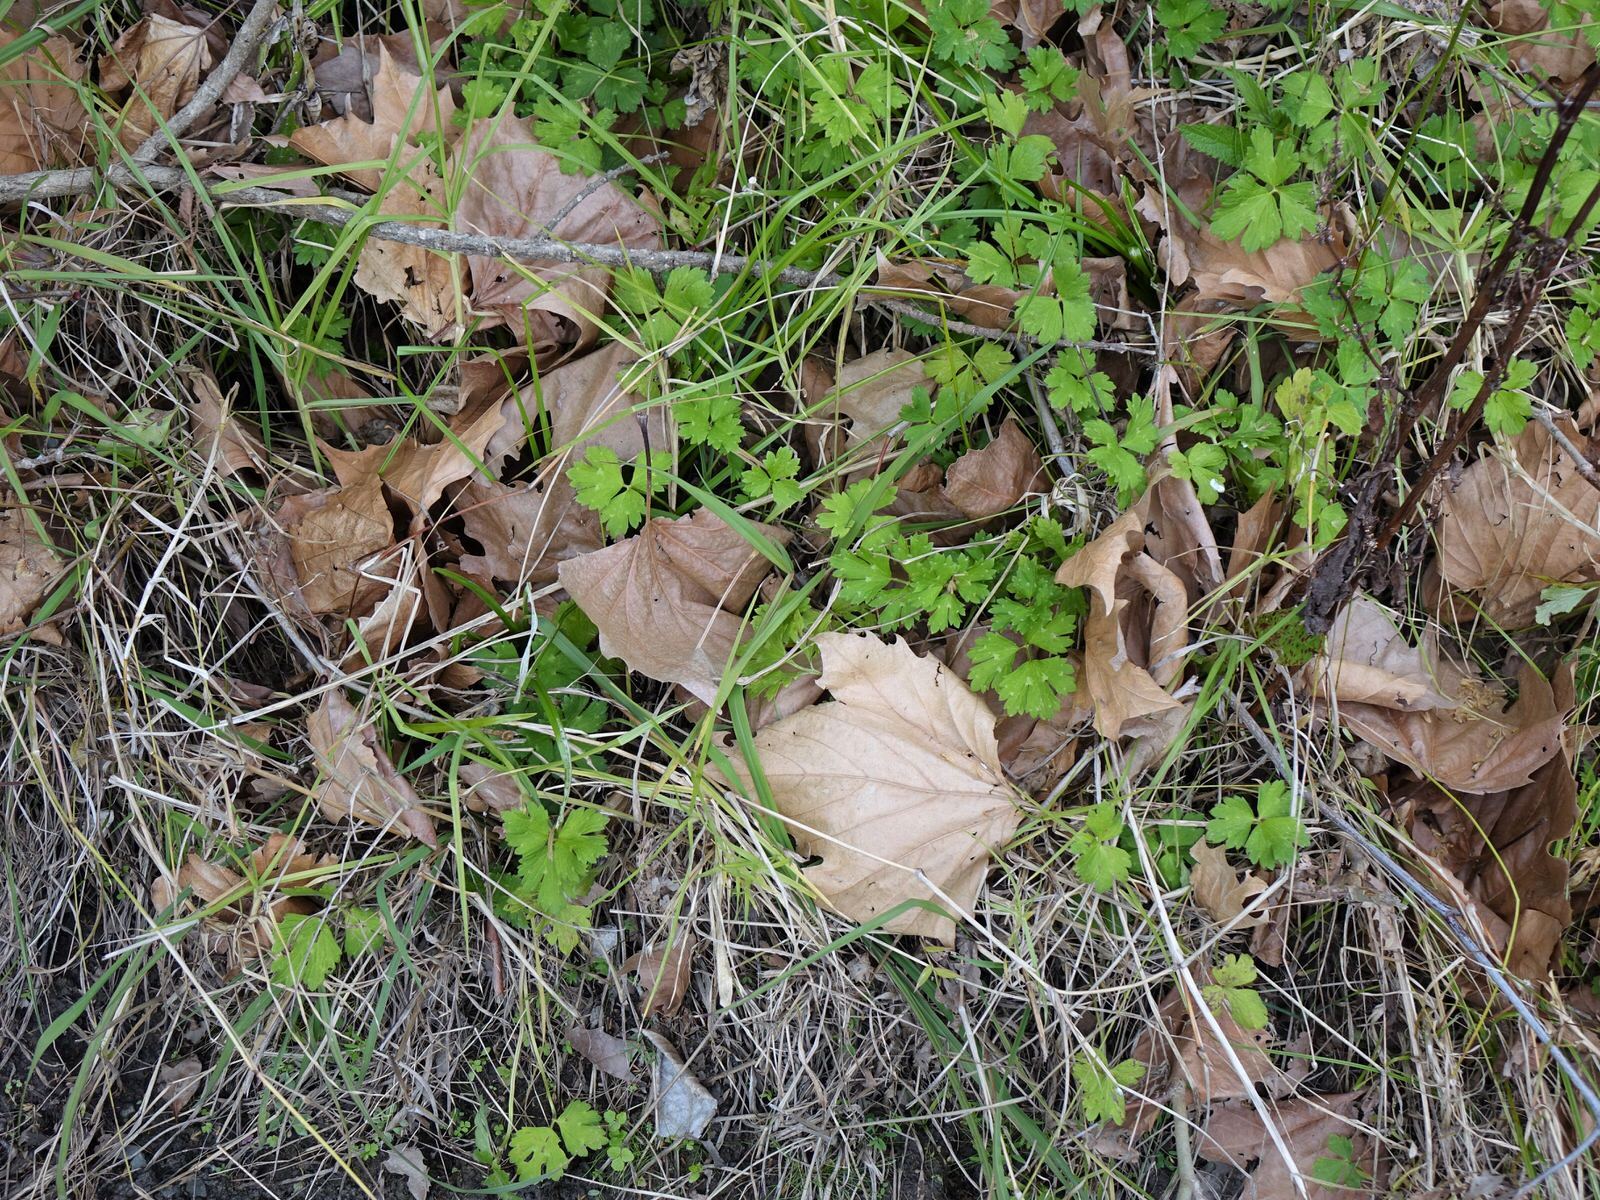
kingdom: Animalia
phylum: Chordata
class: Aves
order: Passeriformes
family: Fringillidae
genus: Carduelis
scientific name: Carduelis carduelis
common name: European goldfinch
